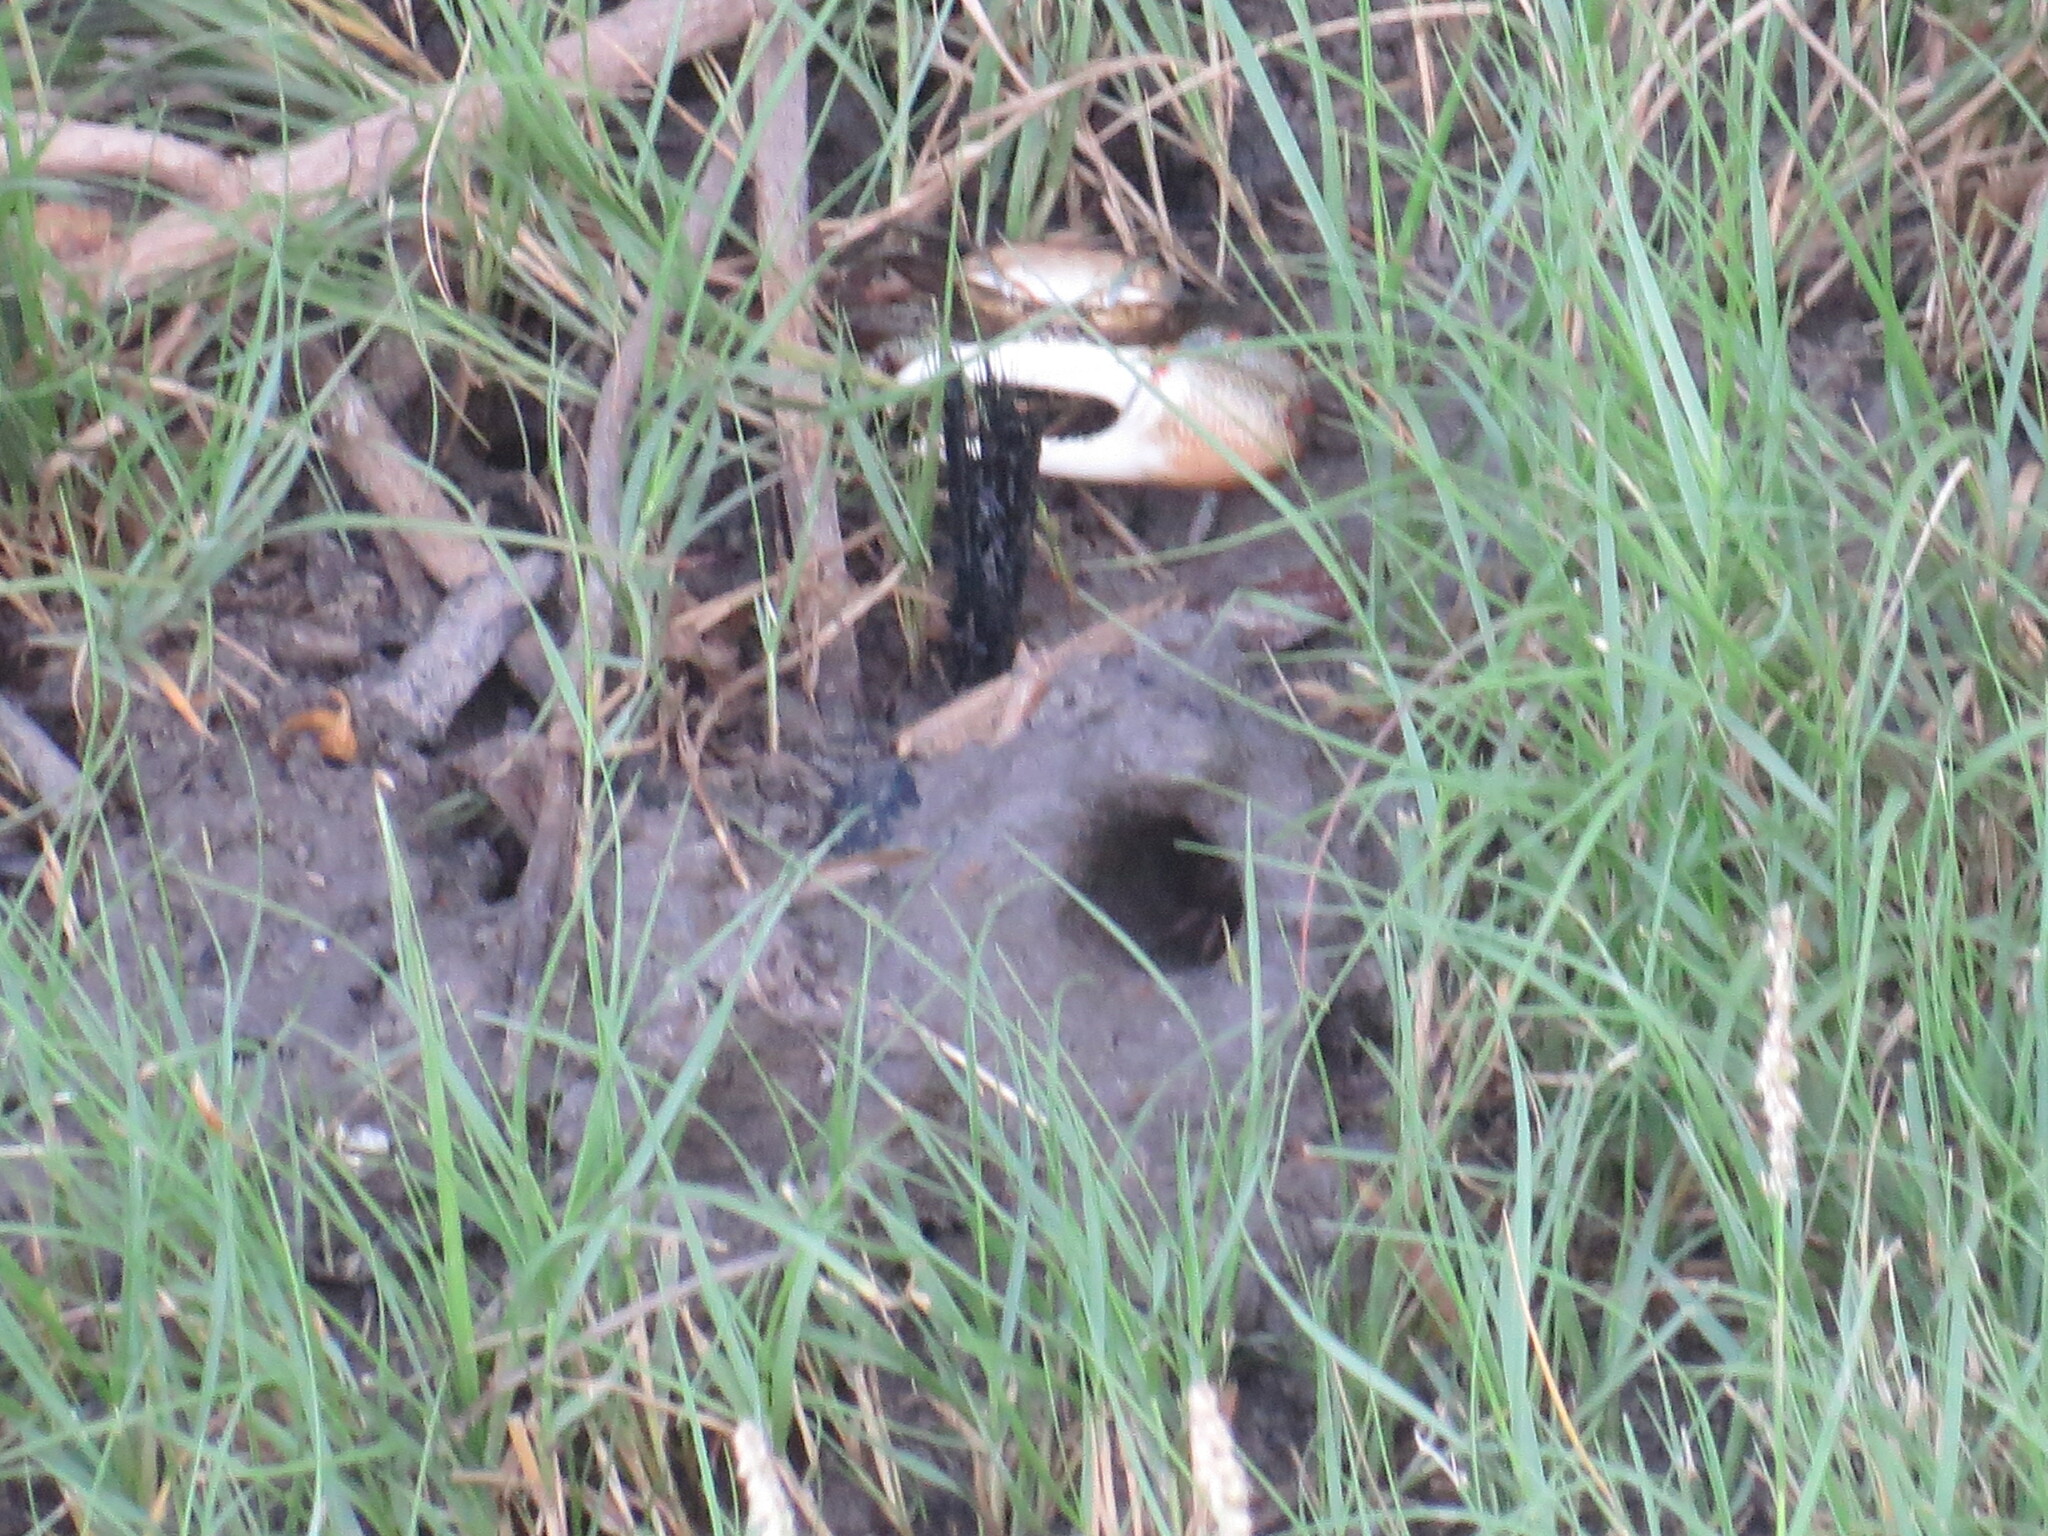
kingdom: Animalia
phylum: Arthropoda
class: Malacostraca
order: Decapoda
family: Ocypodidae
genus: Minuca
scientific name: Minuca minax
